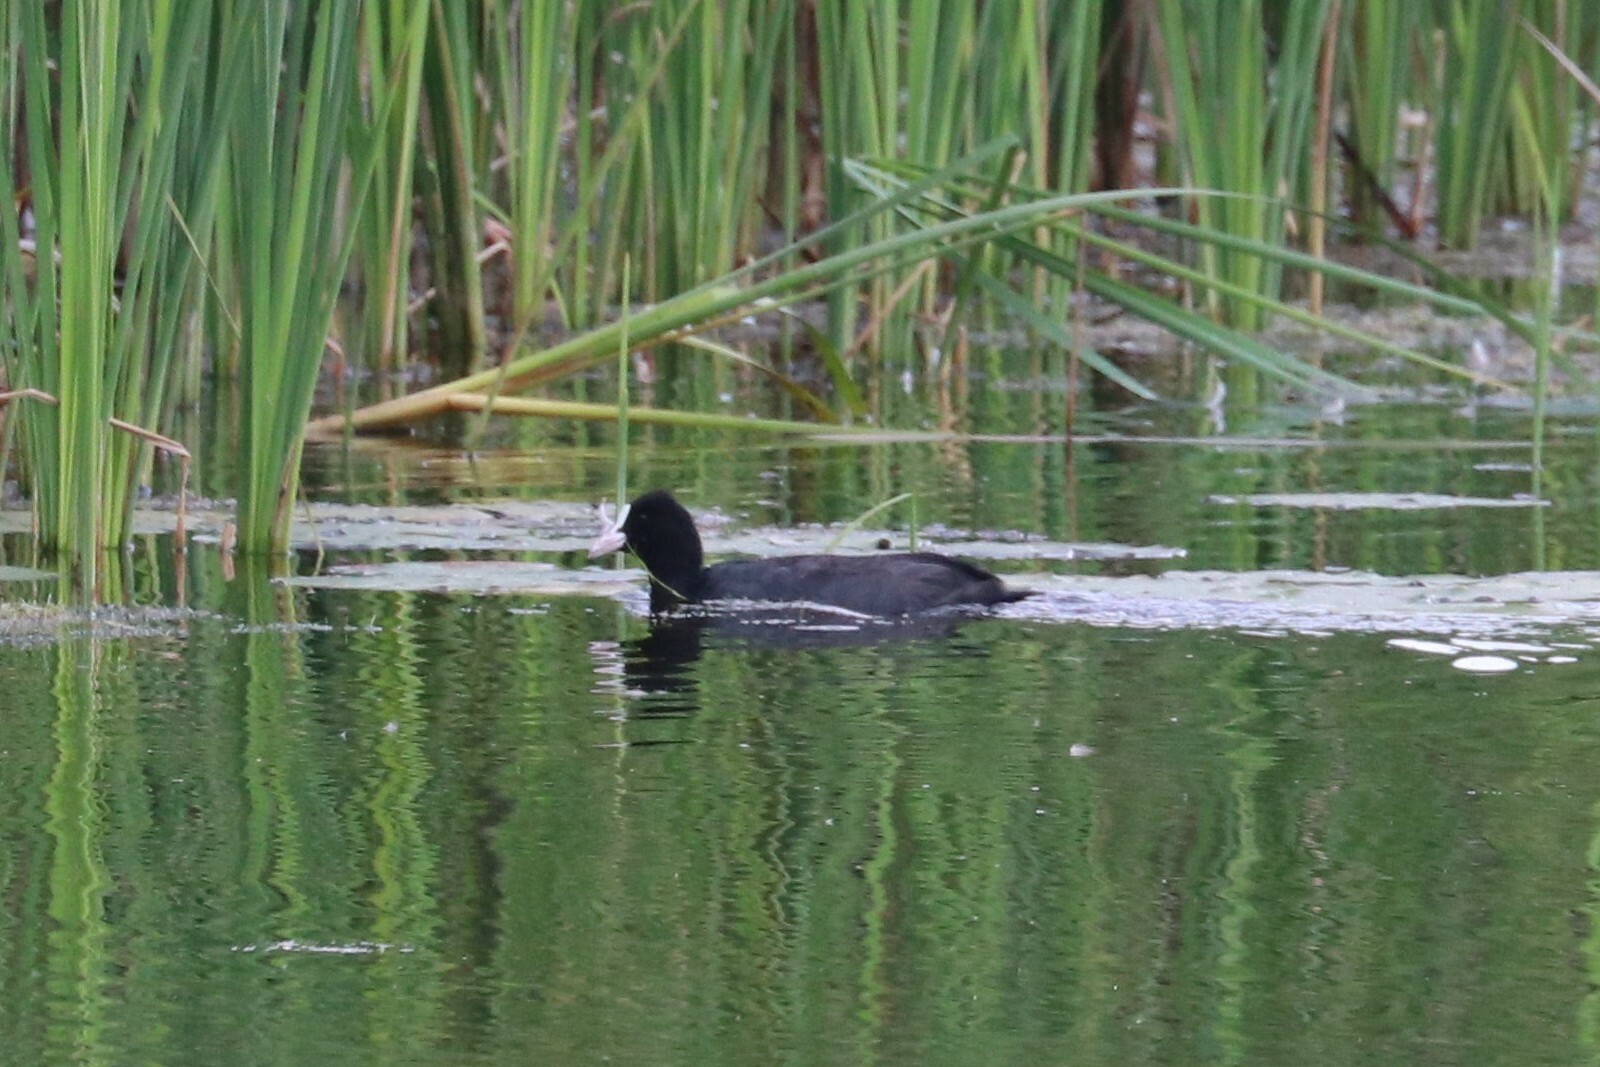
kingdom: Animalia
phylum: Chordata
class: Aves
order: Gruiformes
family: Rallidae
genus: Fulica
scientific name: Fulica atra
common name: Eurasian coot
